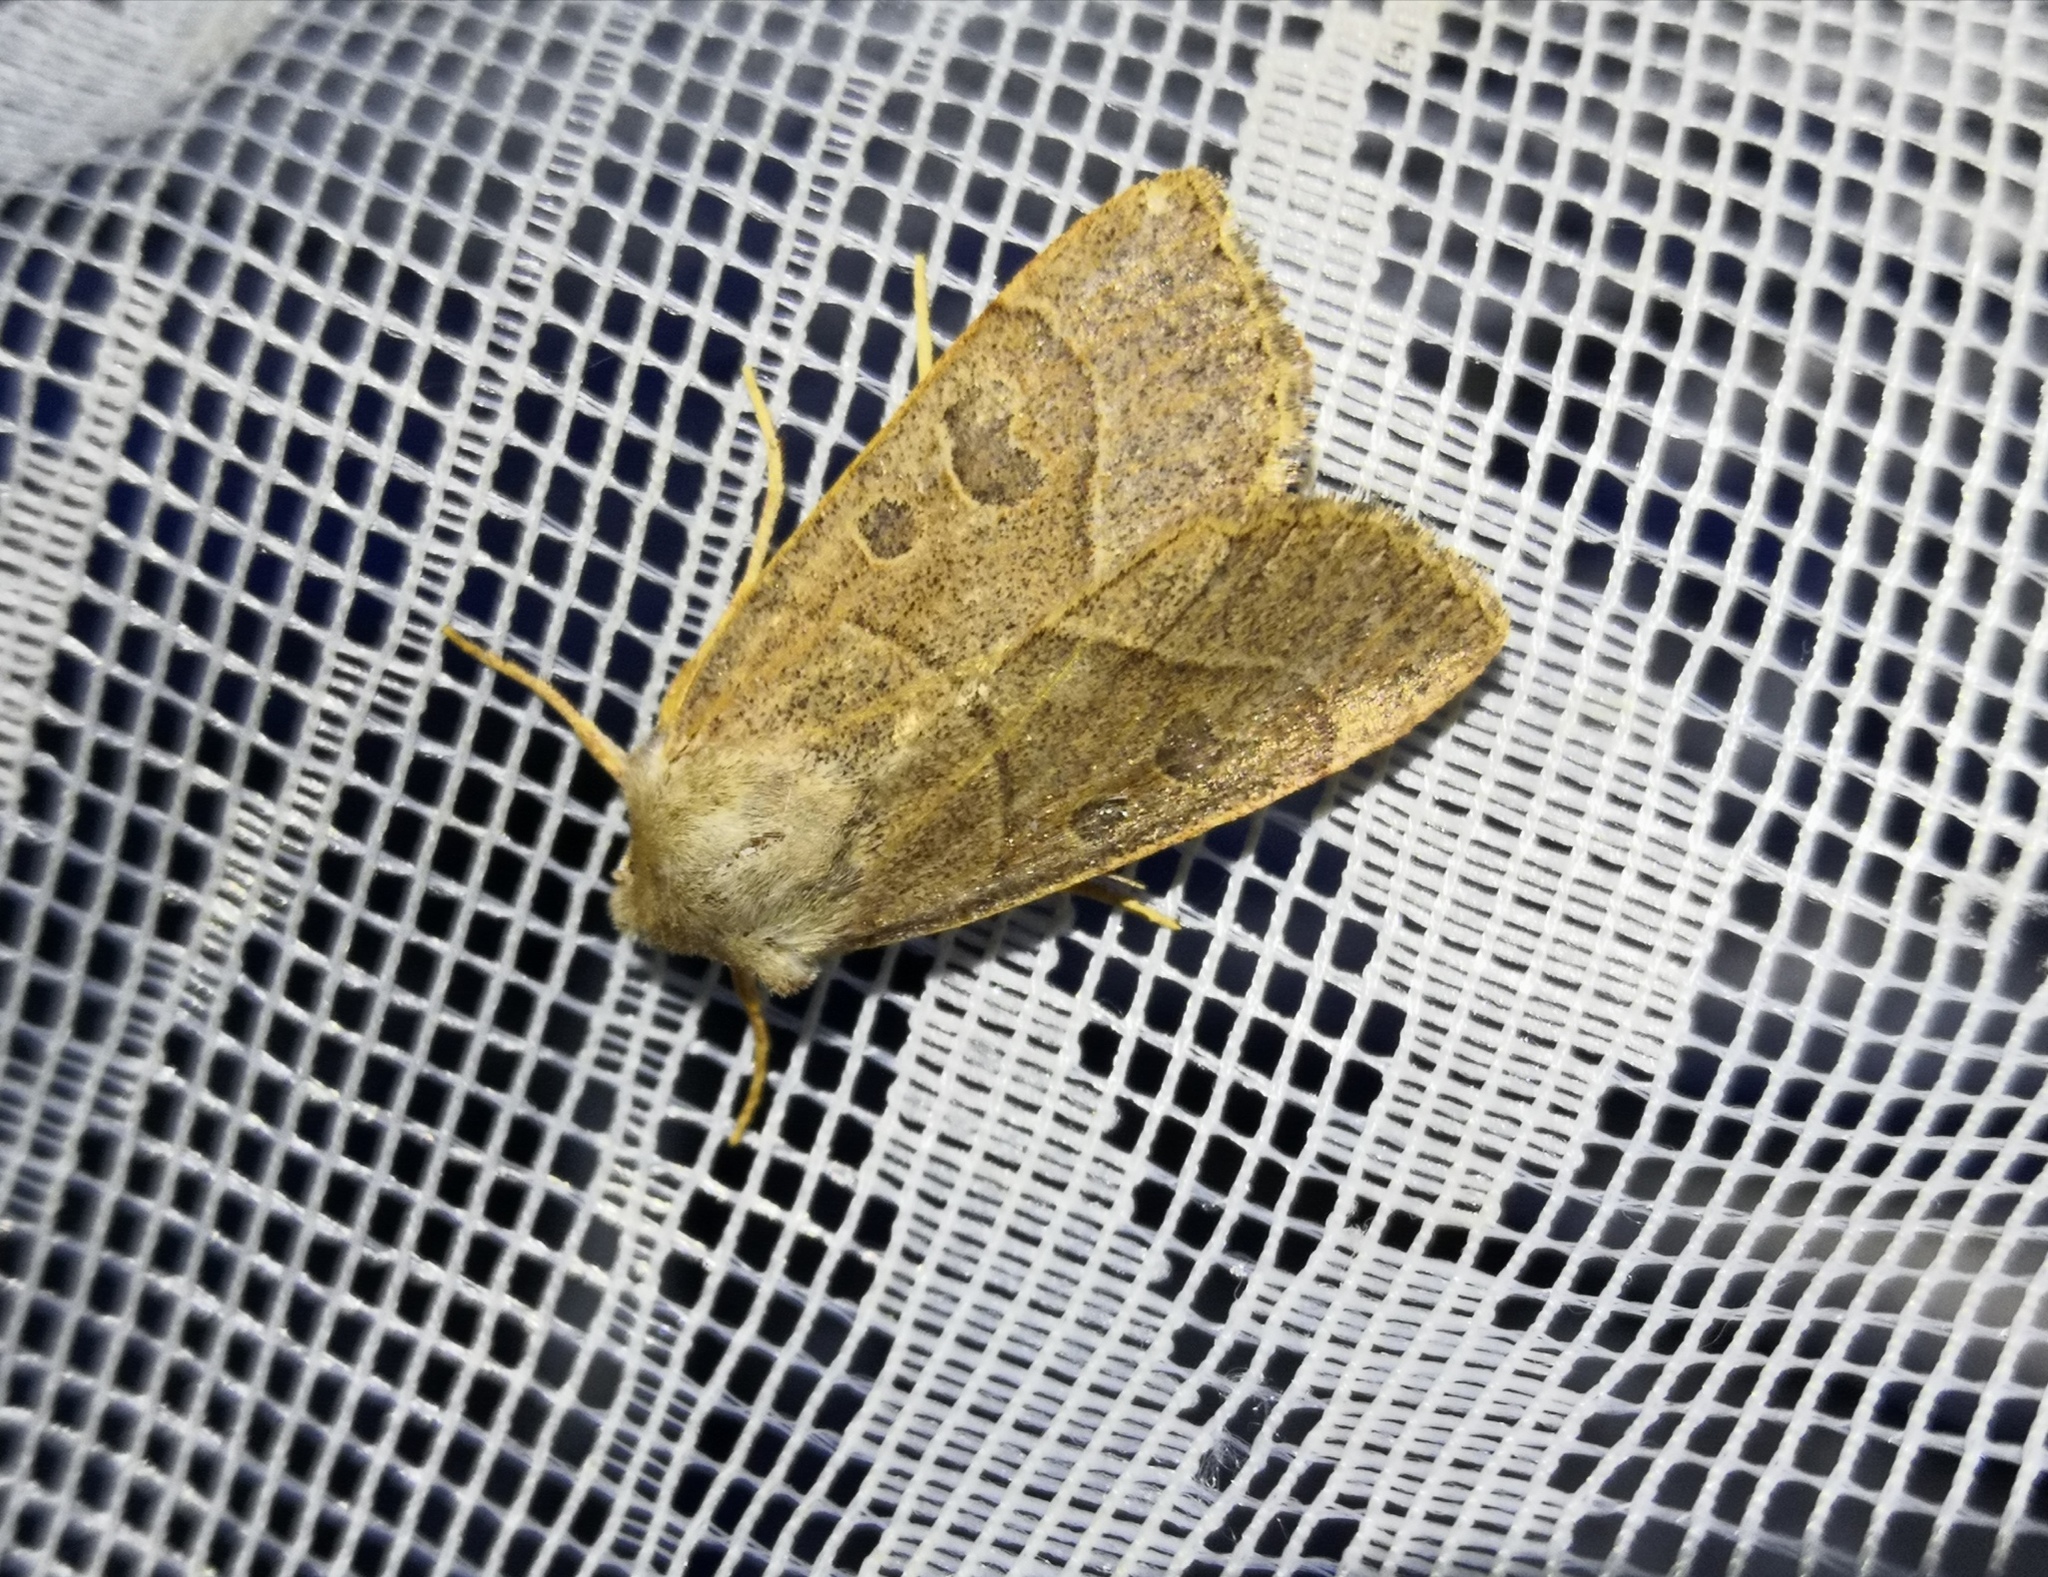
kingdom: Animalia
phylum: Arthropoda
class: Insecta
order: Lepidoptera
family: Noctuidae
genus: Mesogona
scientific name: Mesogona acetosellae
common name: Pale stigma
